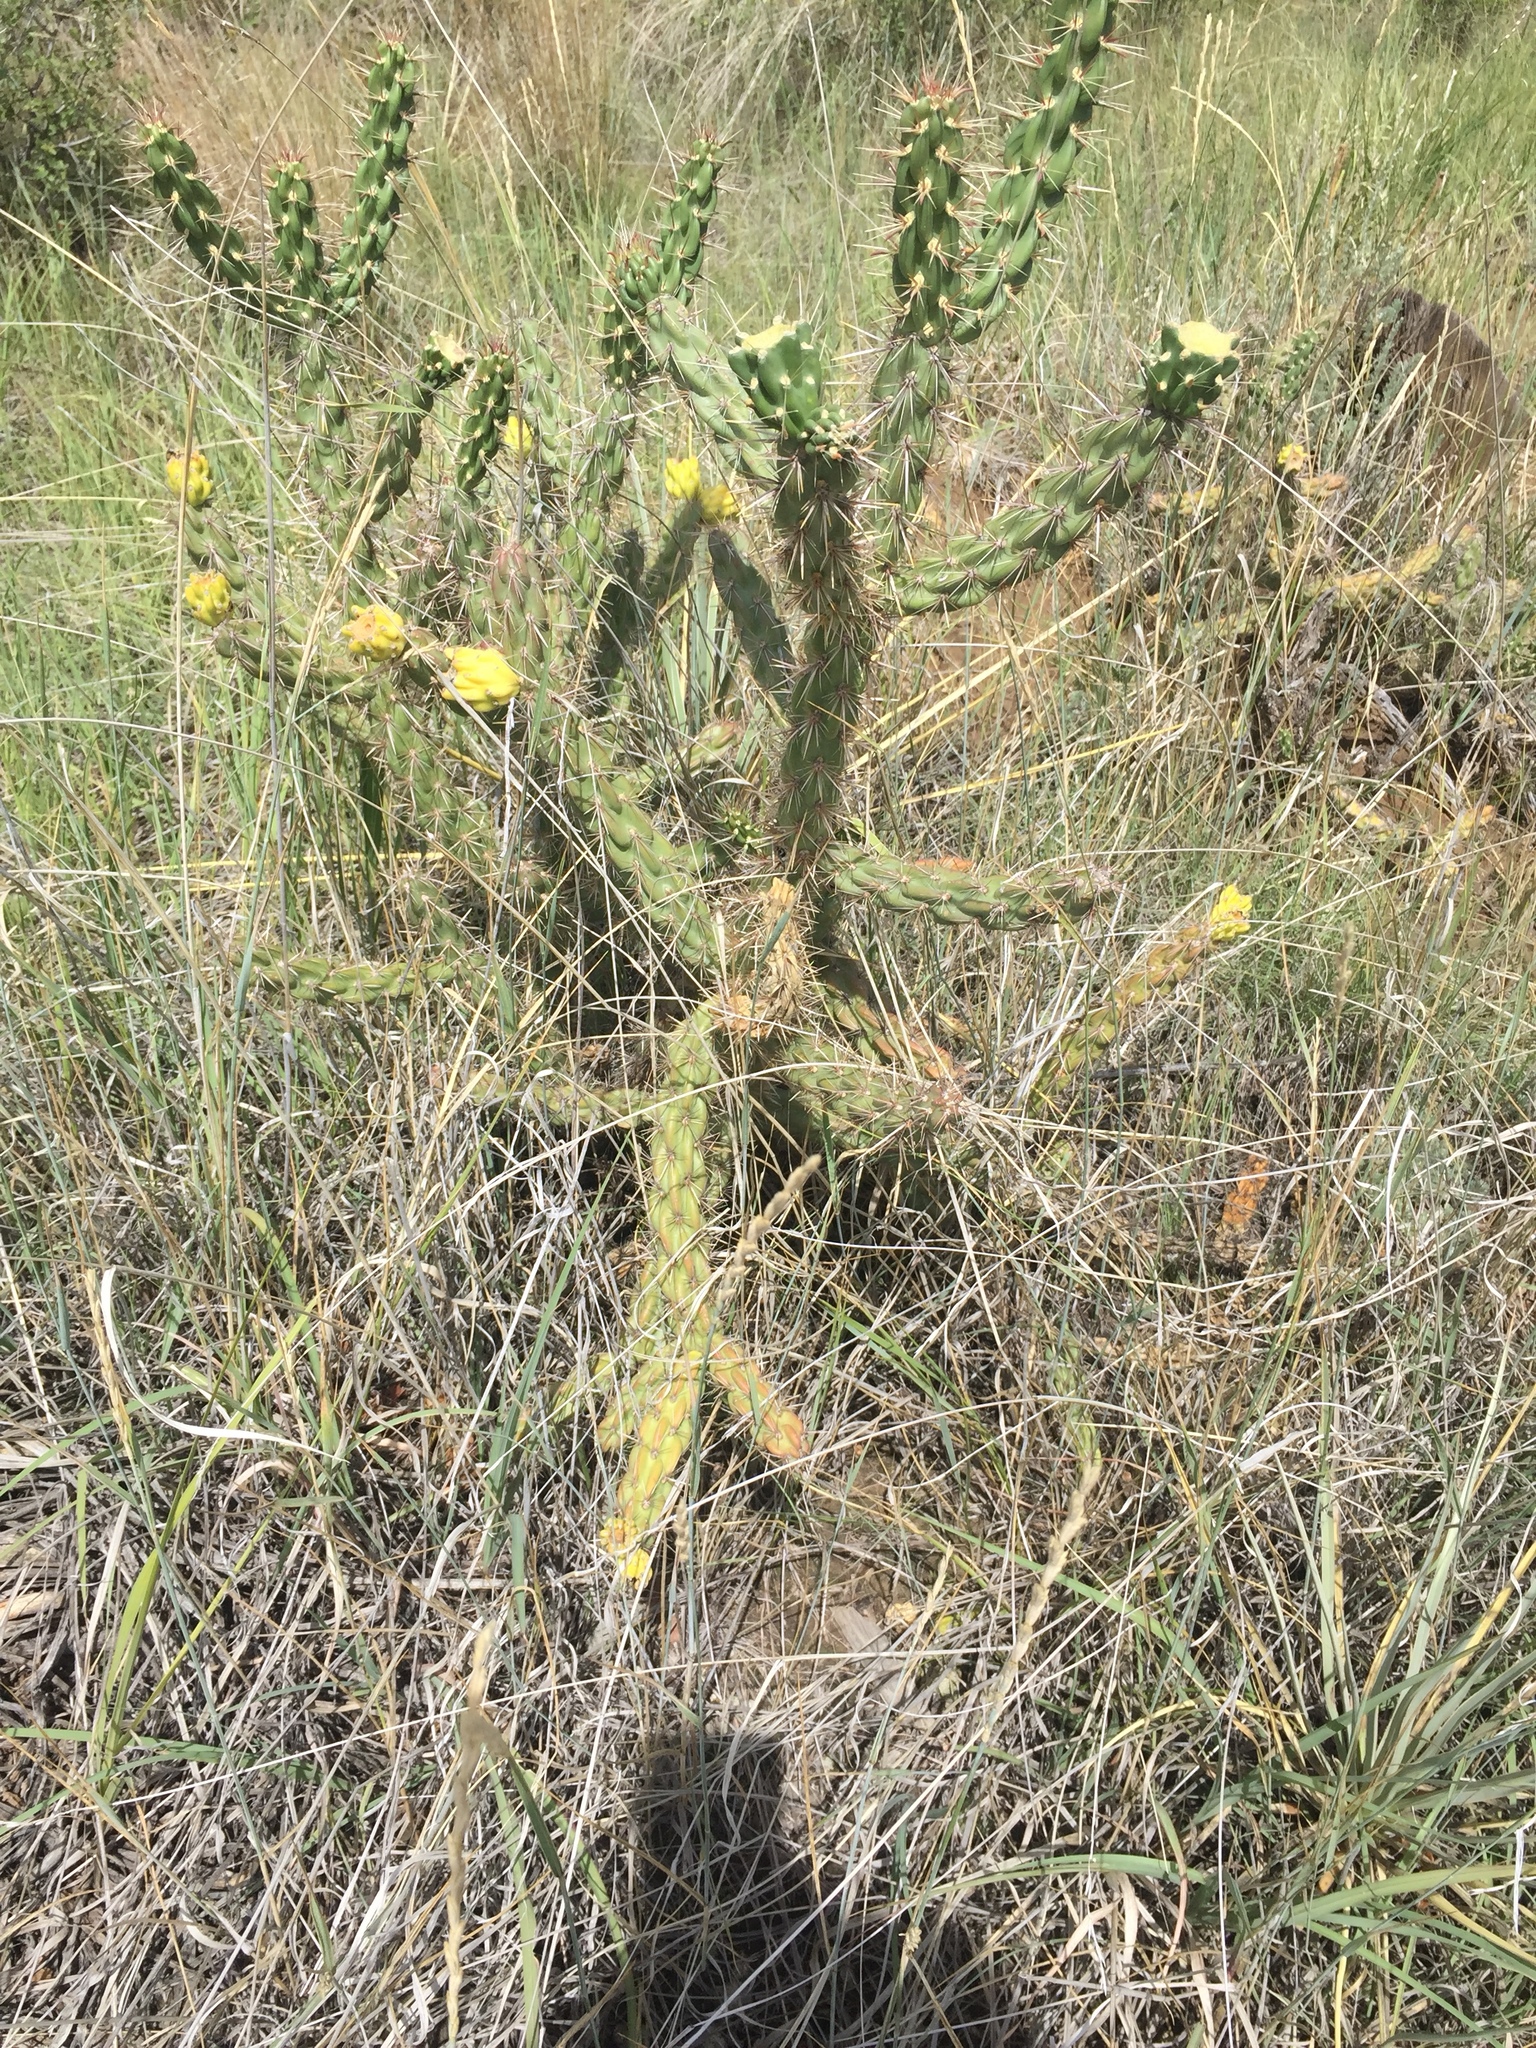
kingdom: Plantae
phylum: Tracheophyta
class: Magnoliopsida
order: Caryophyllales
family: Cactaceae
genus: Cylindropuntia
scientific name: Cylindropuntia imbricata
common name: Candelabrum cactus
